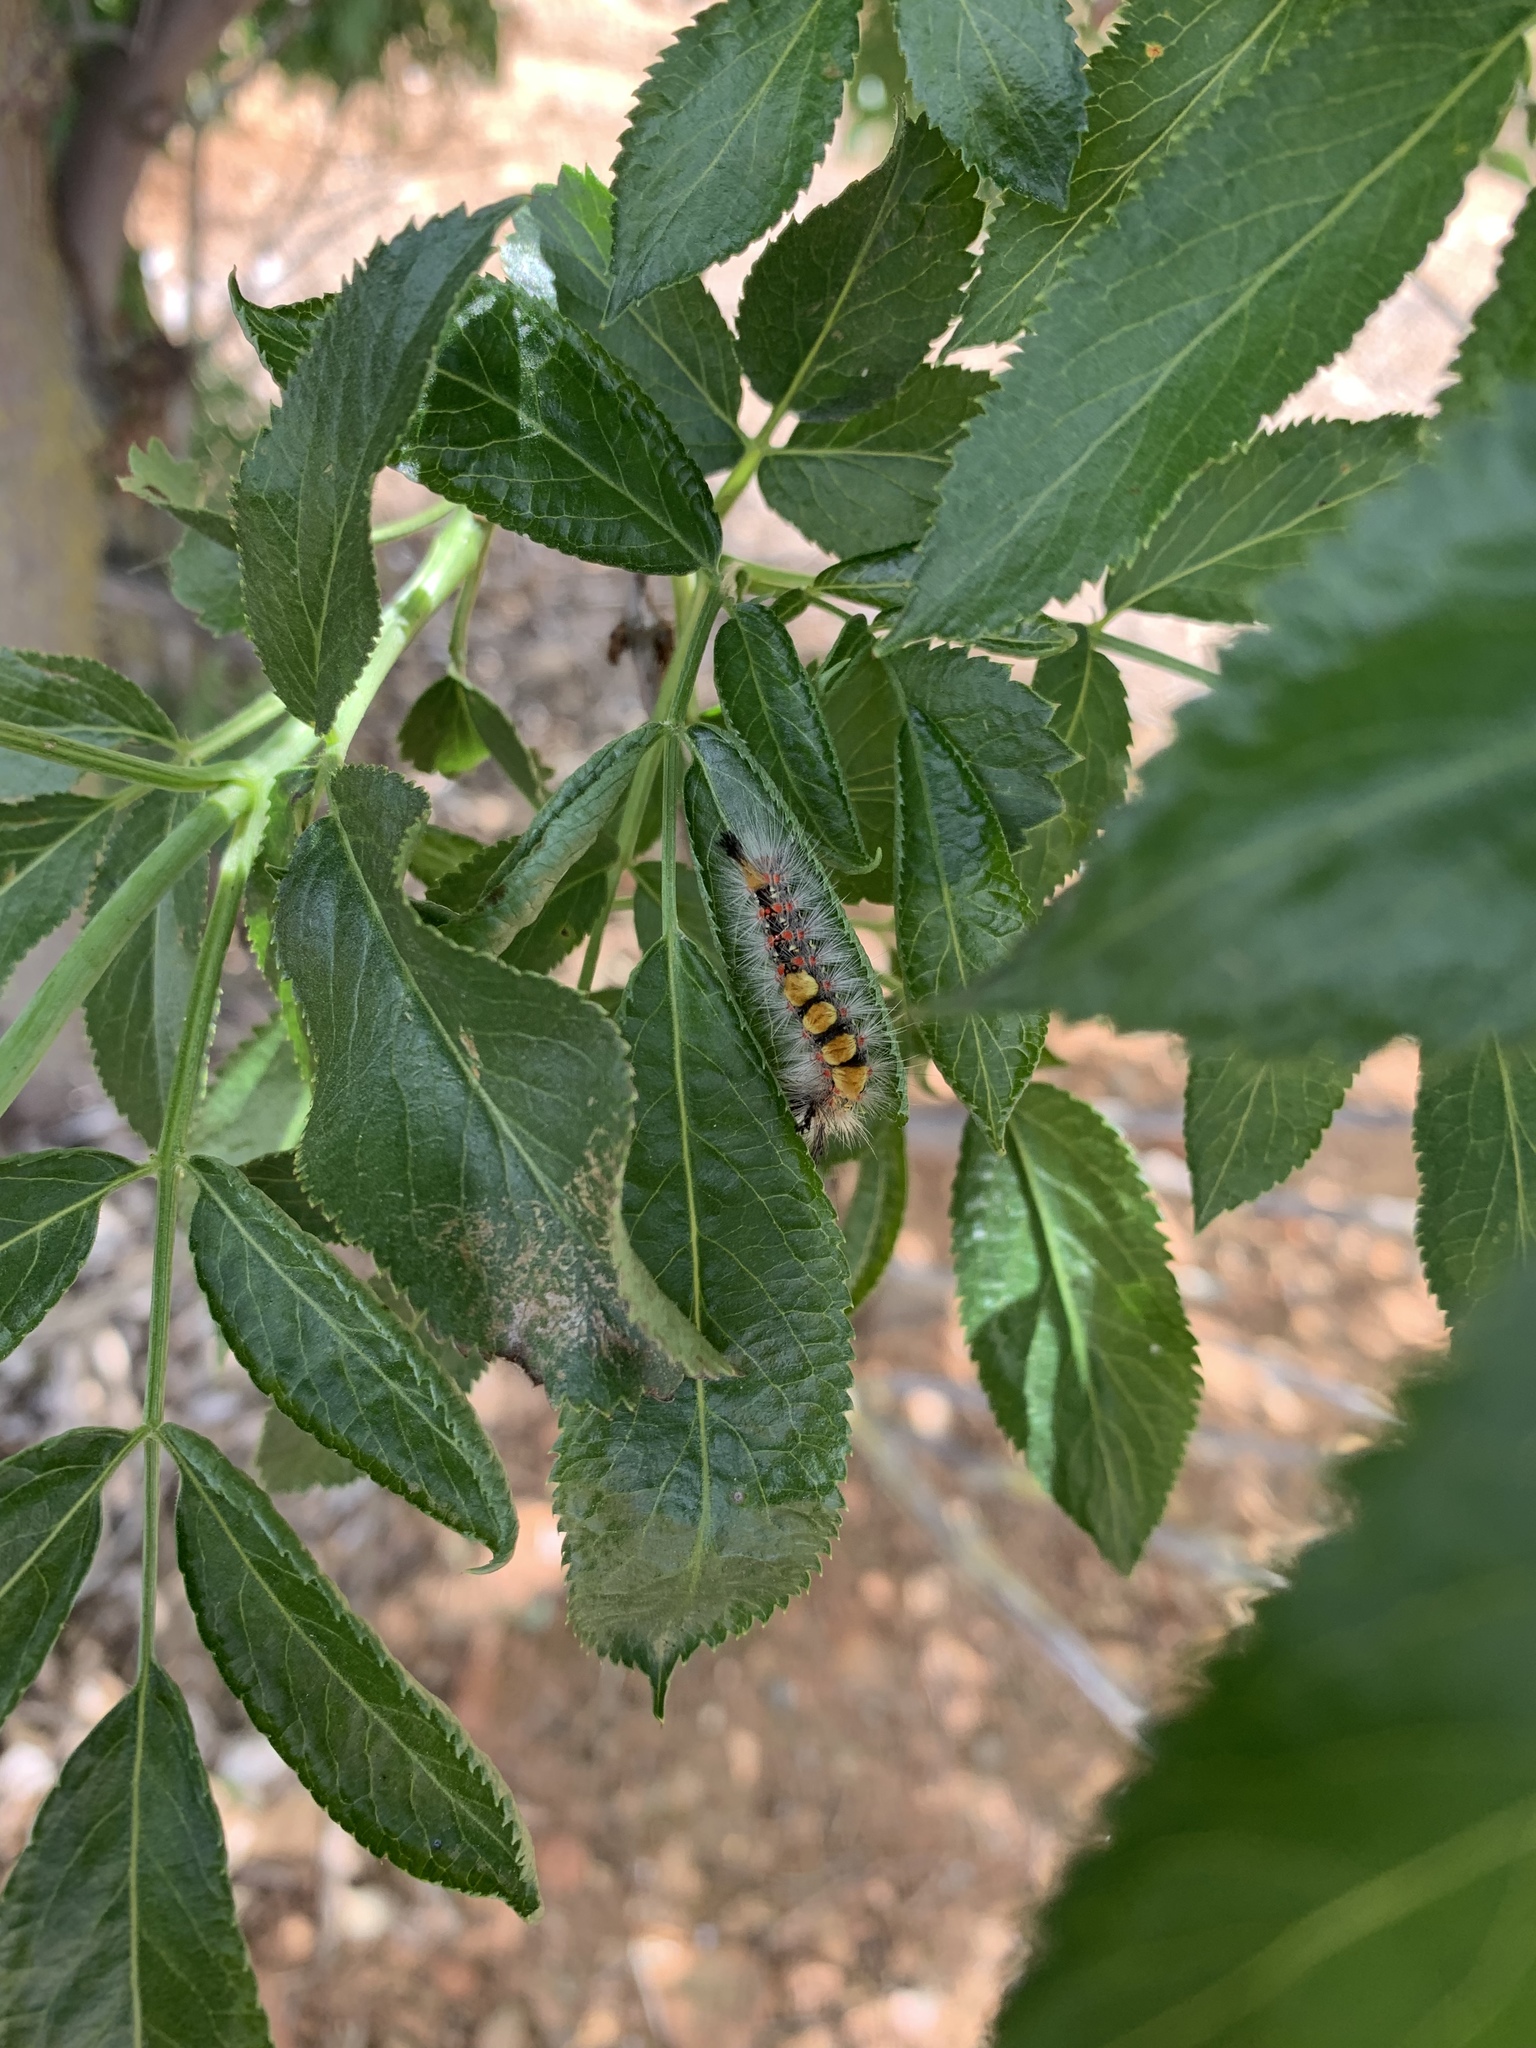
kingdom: Animalia
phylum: Arthropoda
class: Insecta
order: Lepidoptera
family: Erebidae
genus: Orgyia
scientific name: Orgyia vetusta
